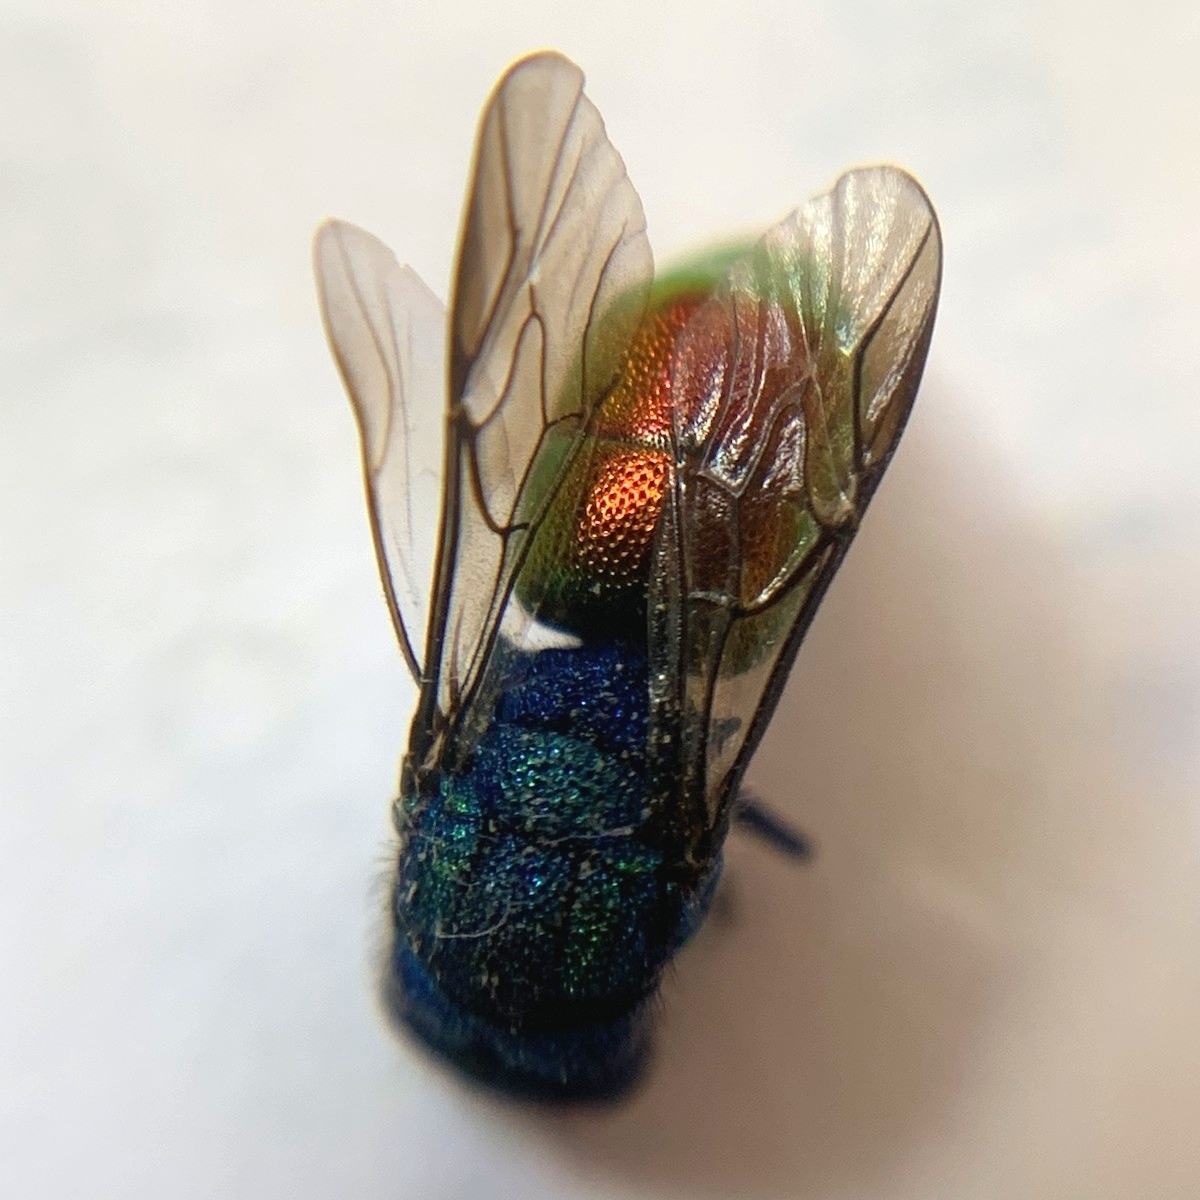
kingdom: Animalia
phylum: Arthropoda
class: Insecta
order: Hymenoptera
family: Chrysididae
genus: Chrysura
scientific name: Chrysura radians
